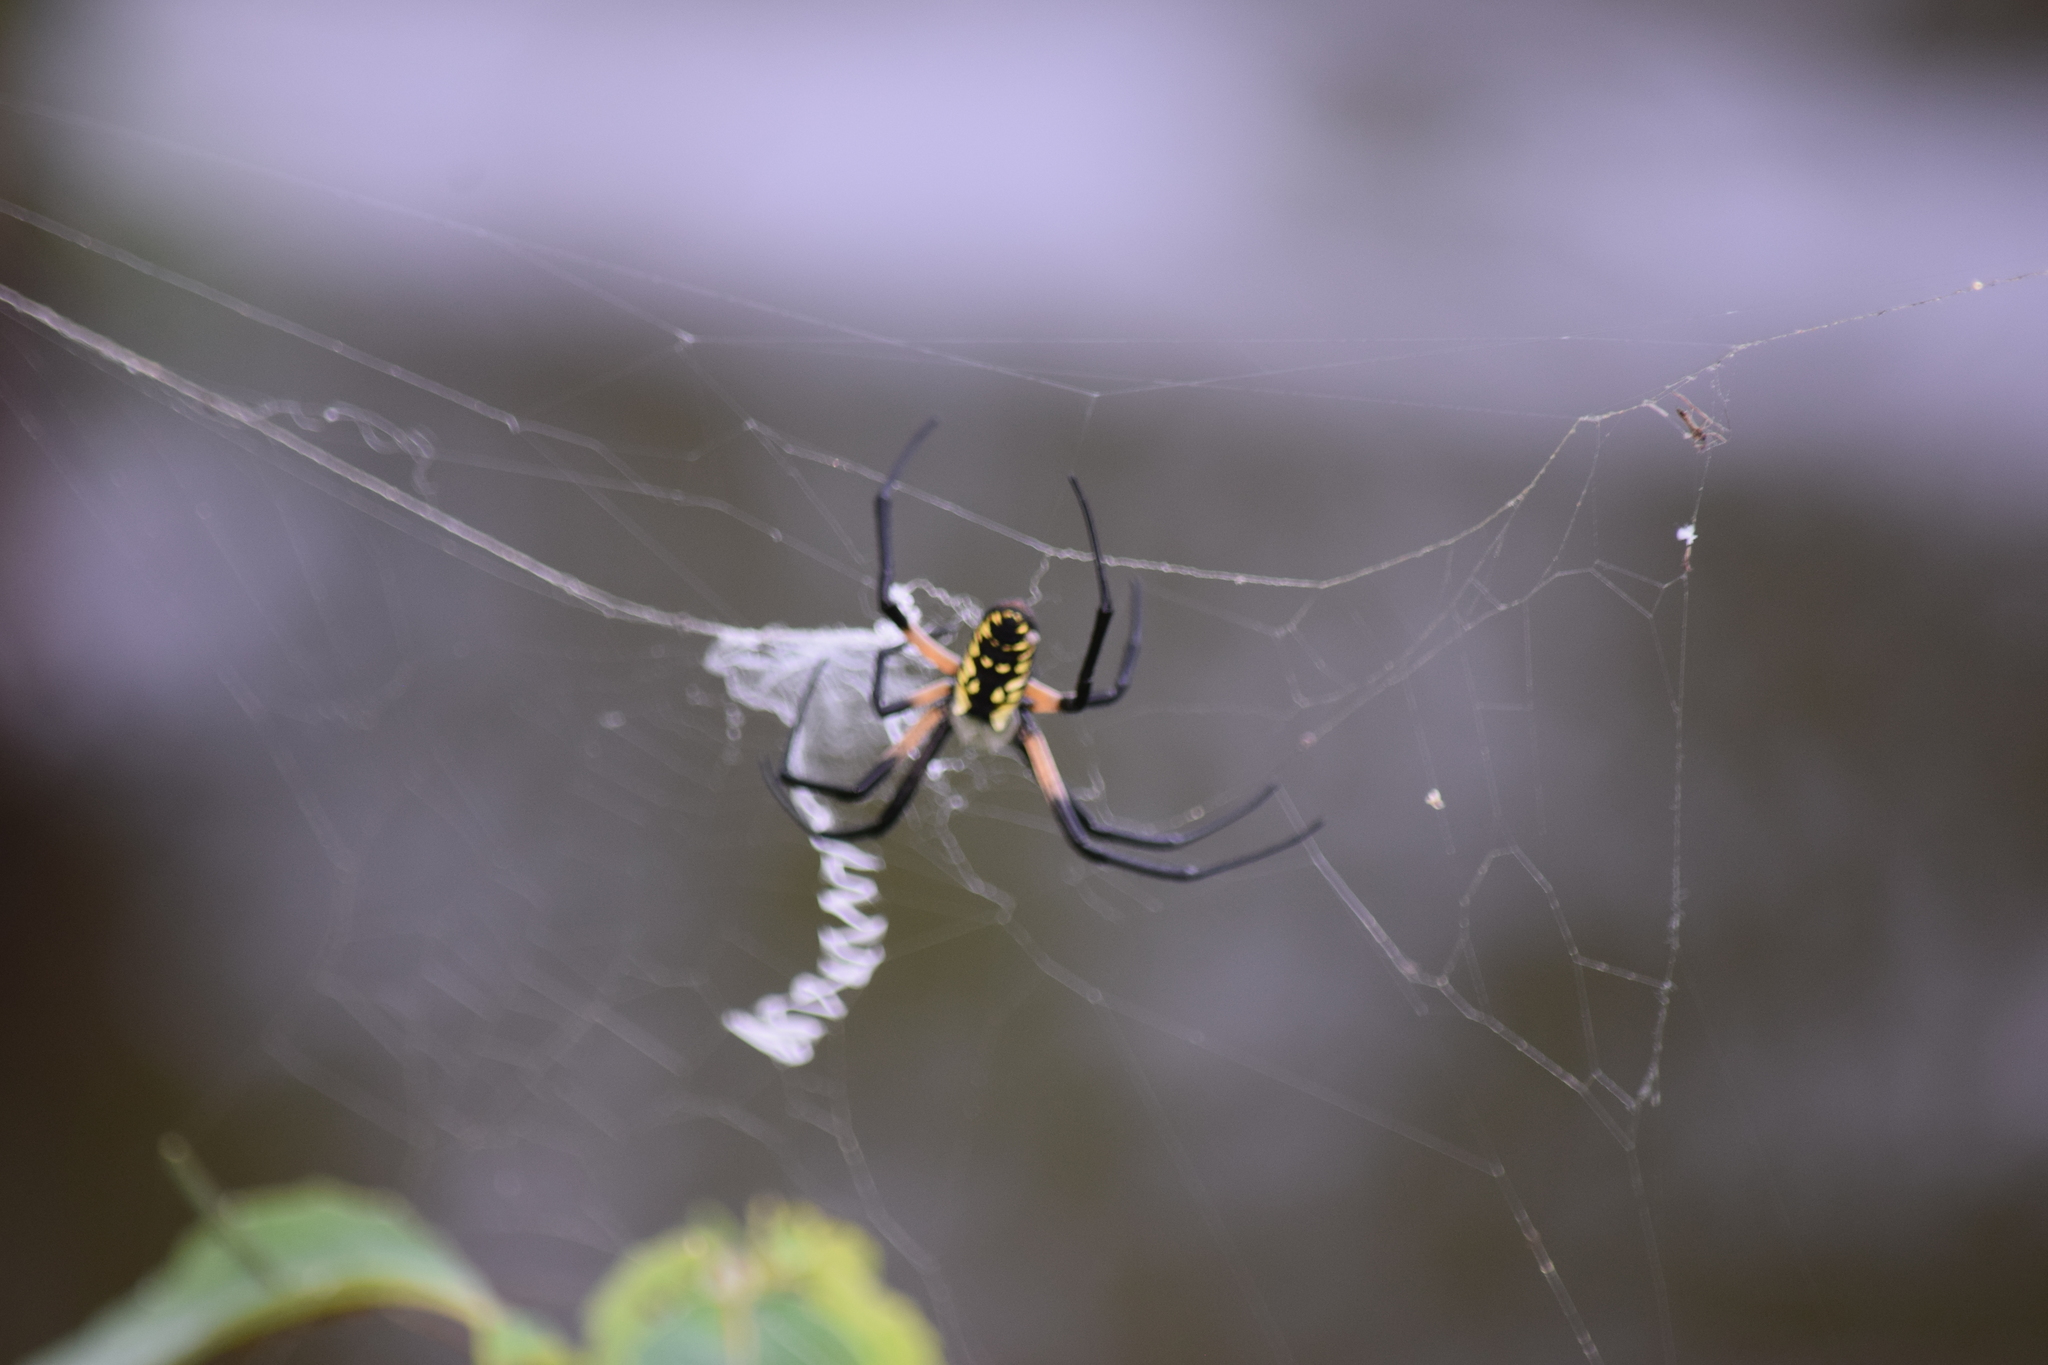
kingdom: Animalia
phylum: Arthropoda
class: Arachnida
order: Araneae
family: Araneidae
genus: Argiope
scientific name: Argiope aurantia
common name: Orb weavers
